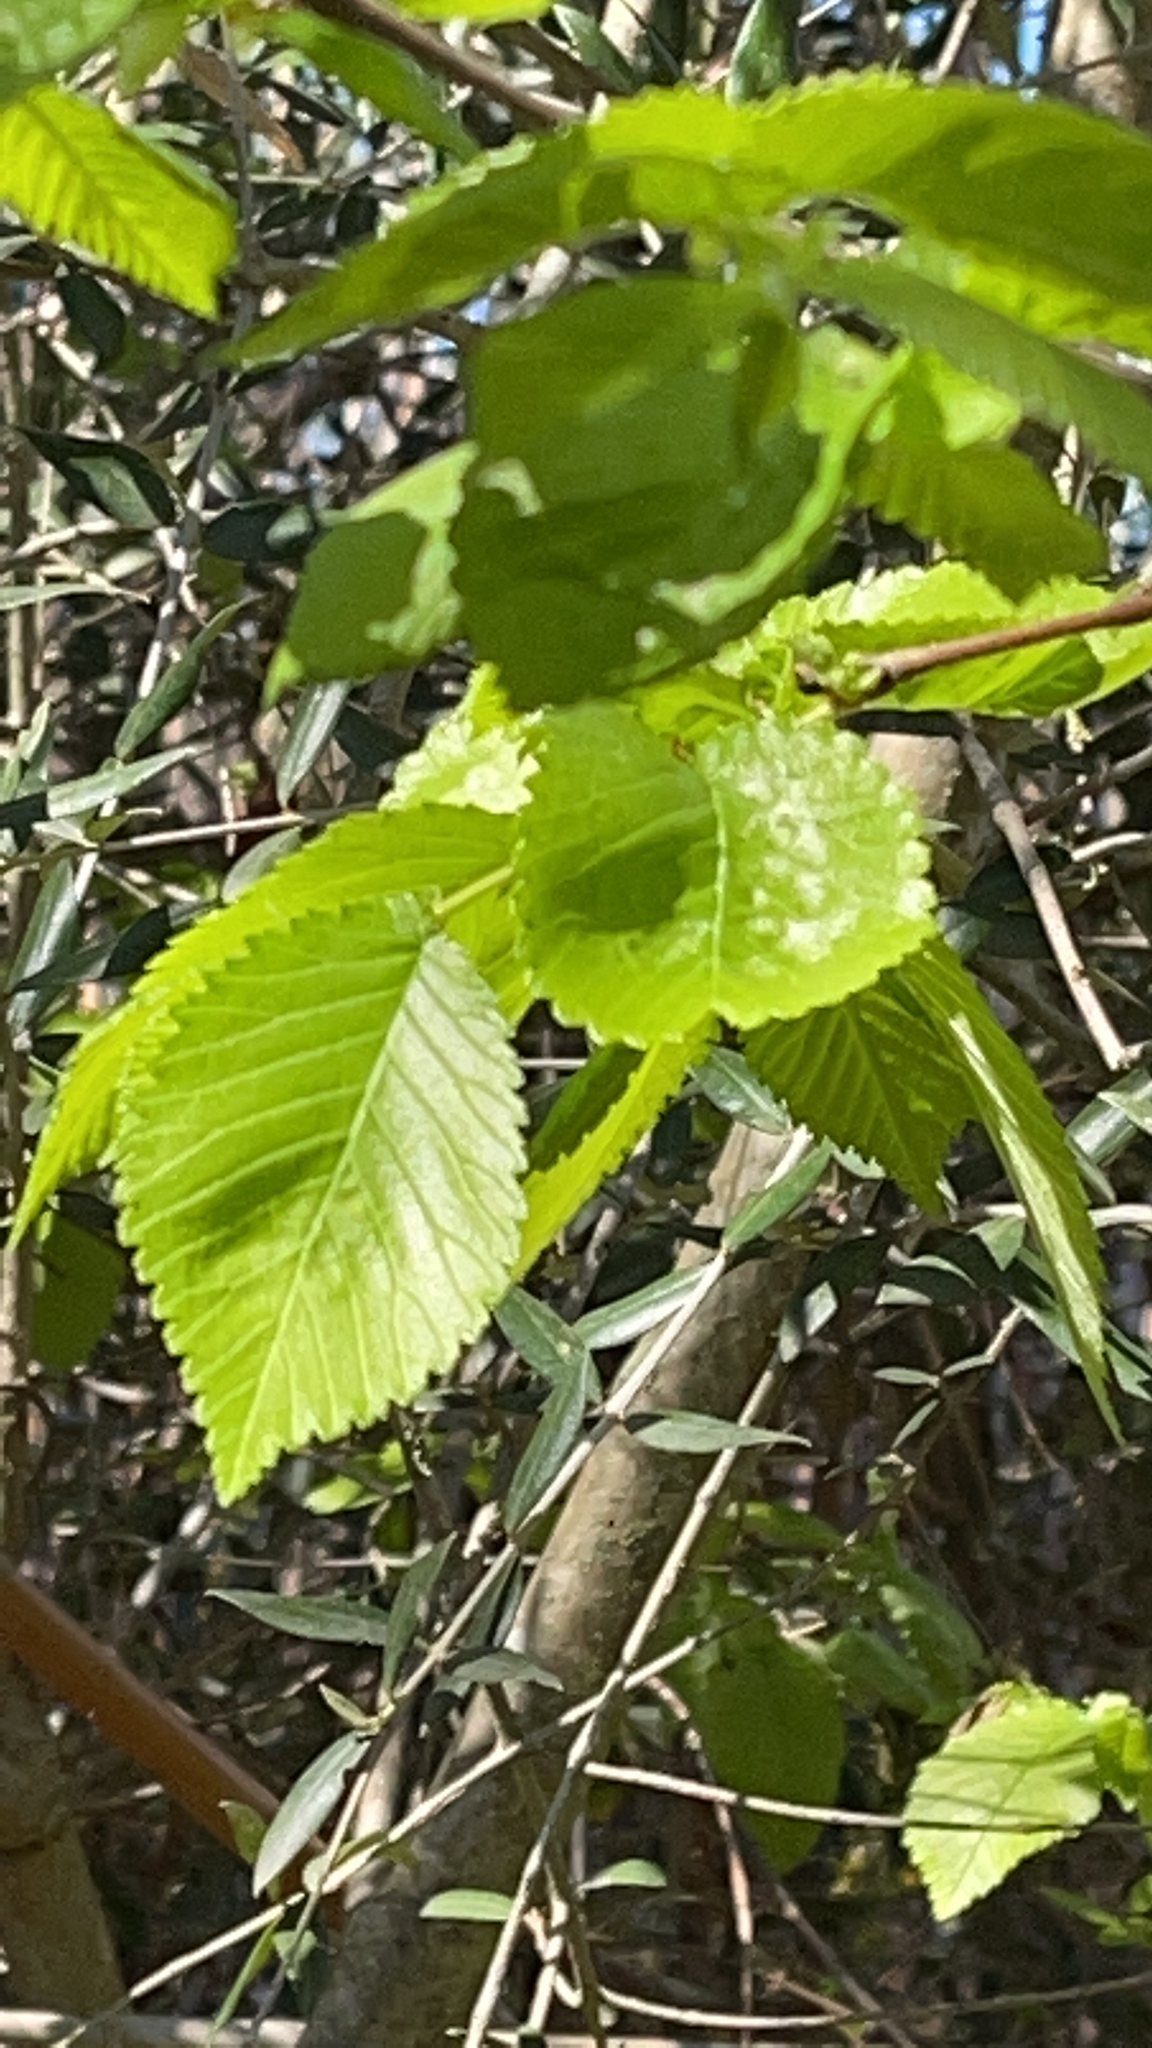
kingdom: Plantae
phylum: Tracheophyta
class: Magnoliopsida
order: Rosales
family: Ulmaceae
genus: Ulmus
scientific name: Ulmus minor
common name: Small-leaved elm
